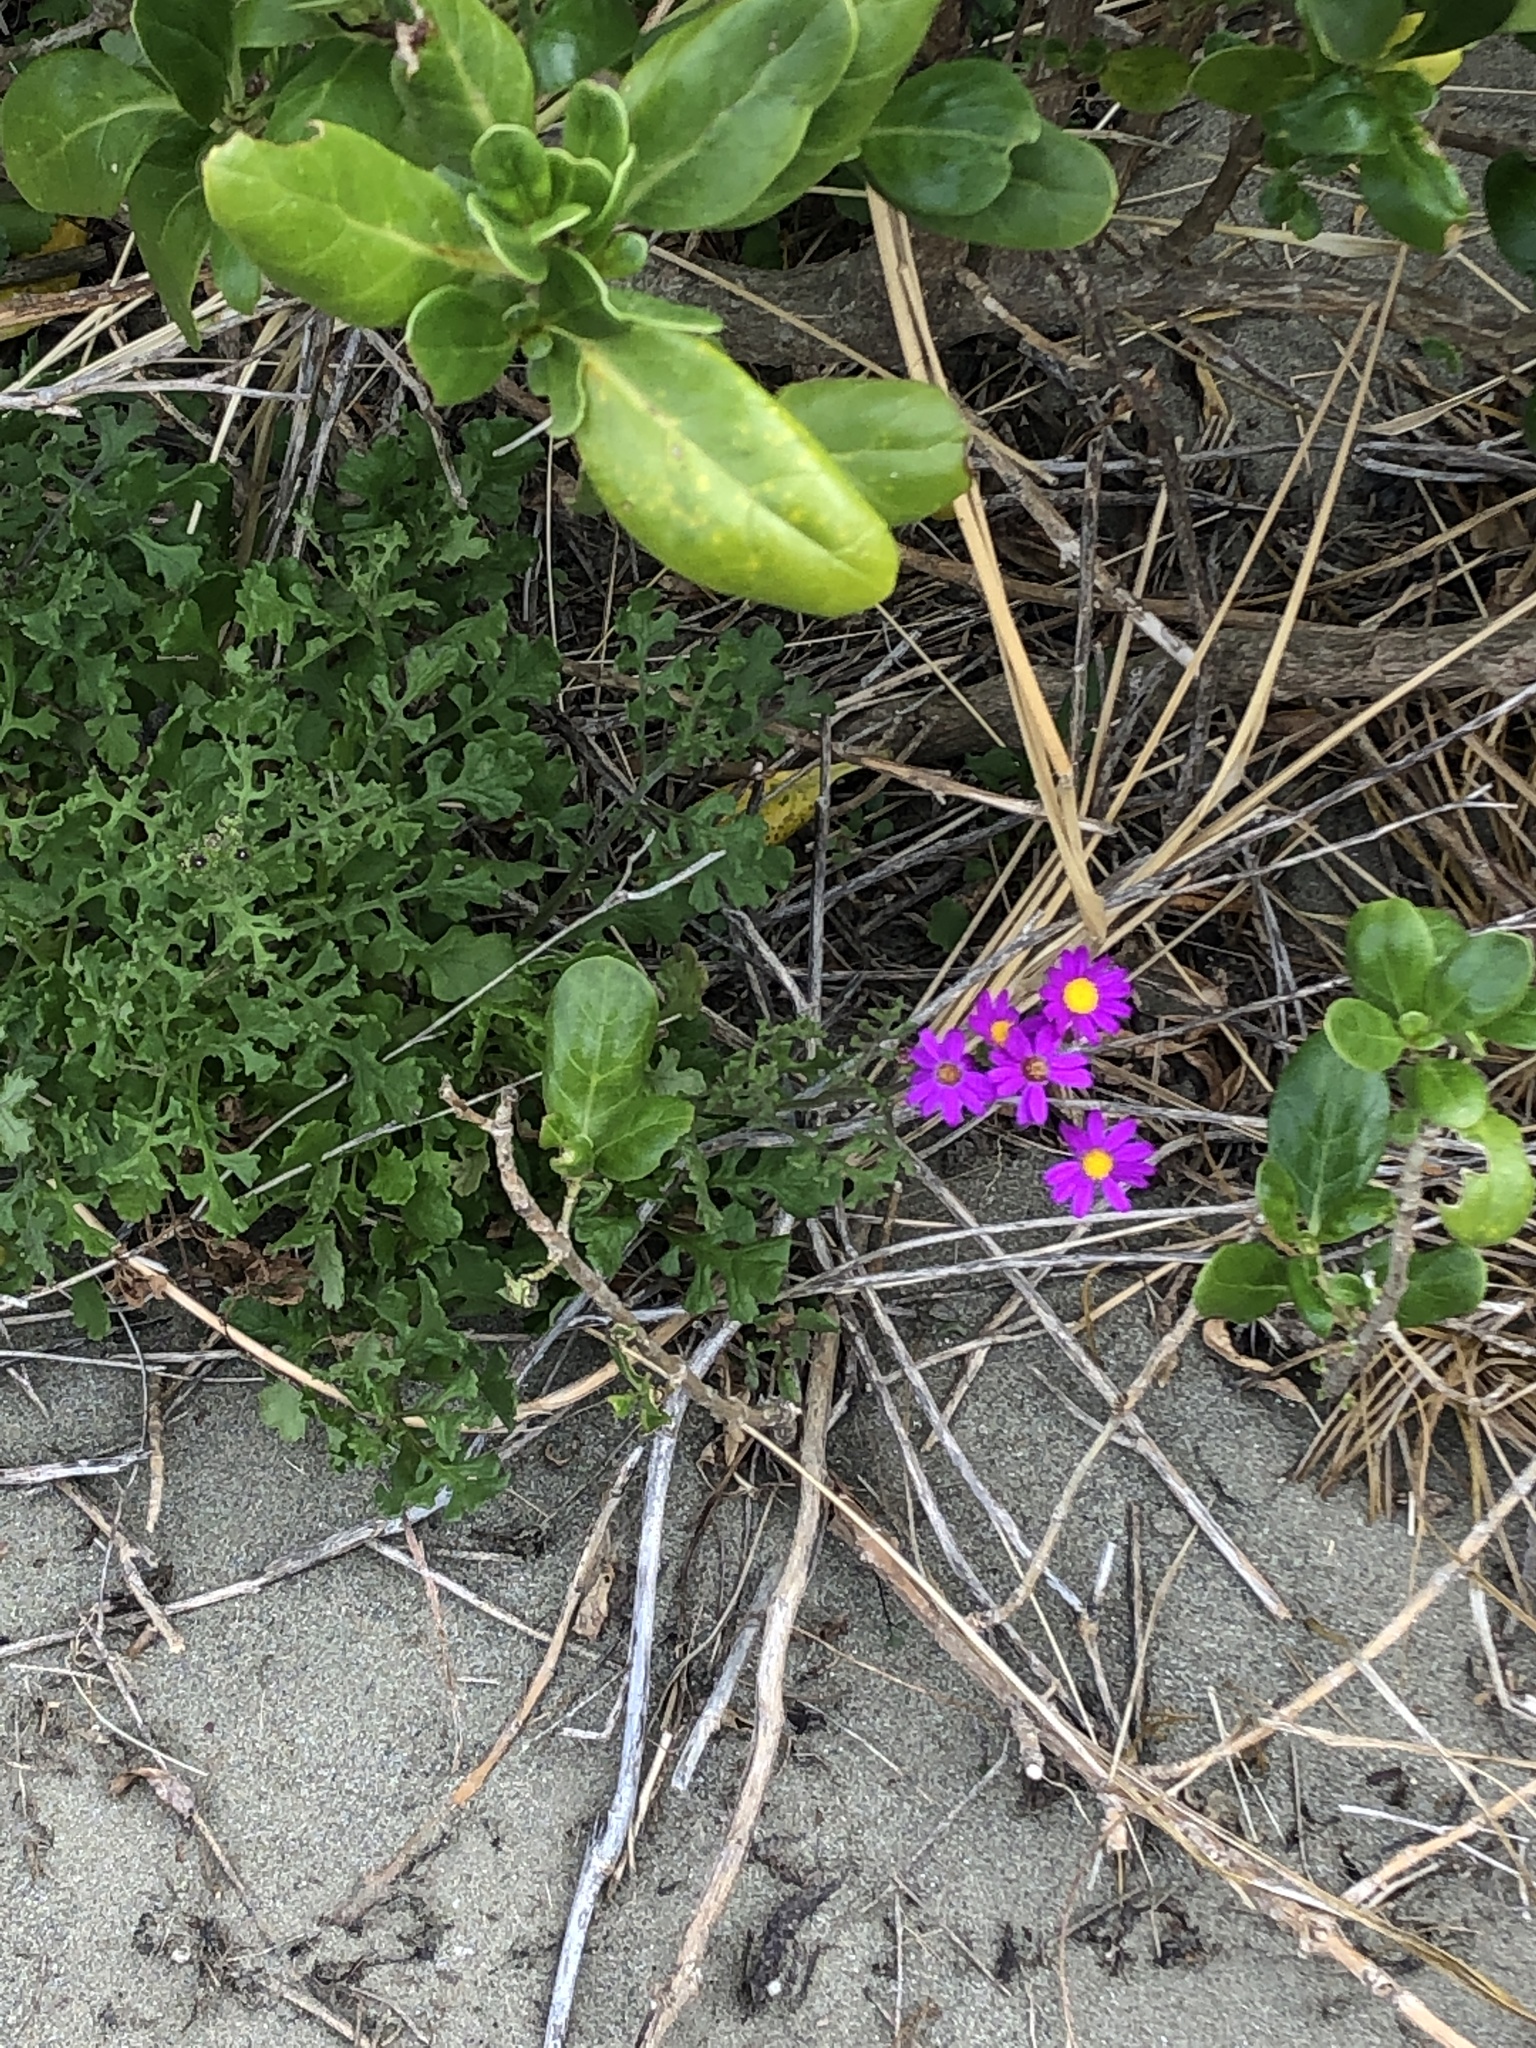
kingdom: Plantae
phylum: Tracheophyta
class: Magnoliopsida
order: Asterales
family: Asteraceae
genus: Senecio
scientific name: Senecio elegans
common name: Purple groundsel
